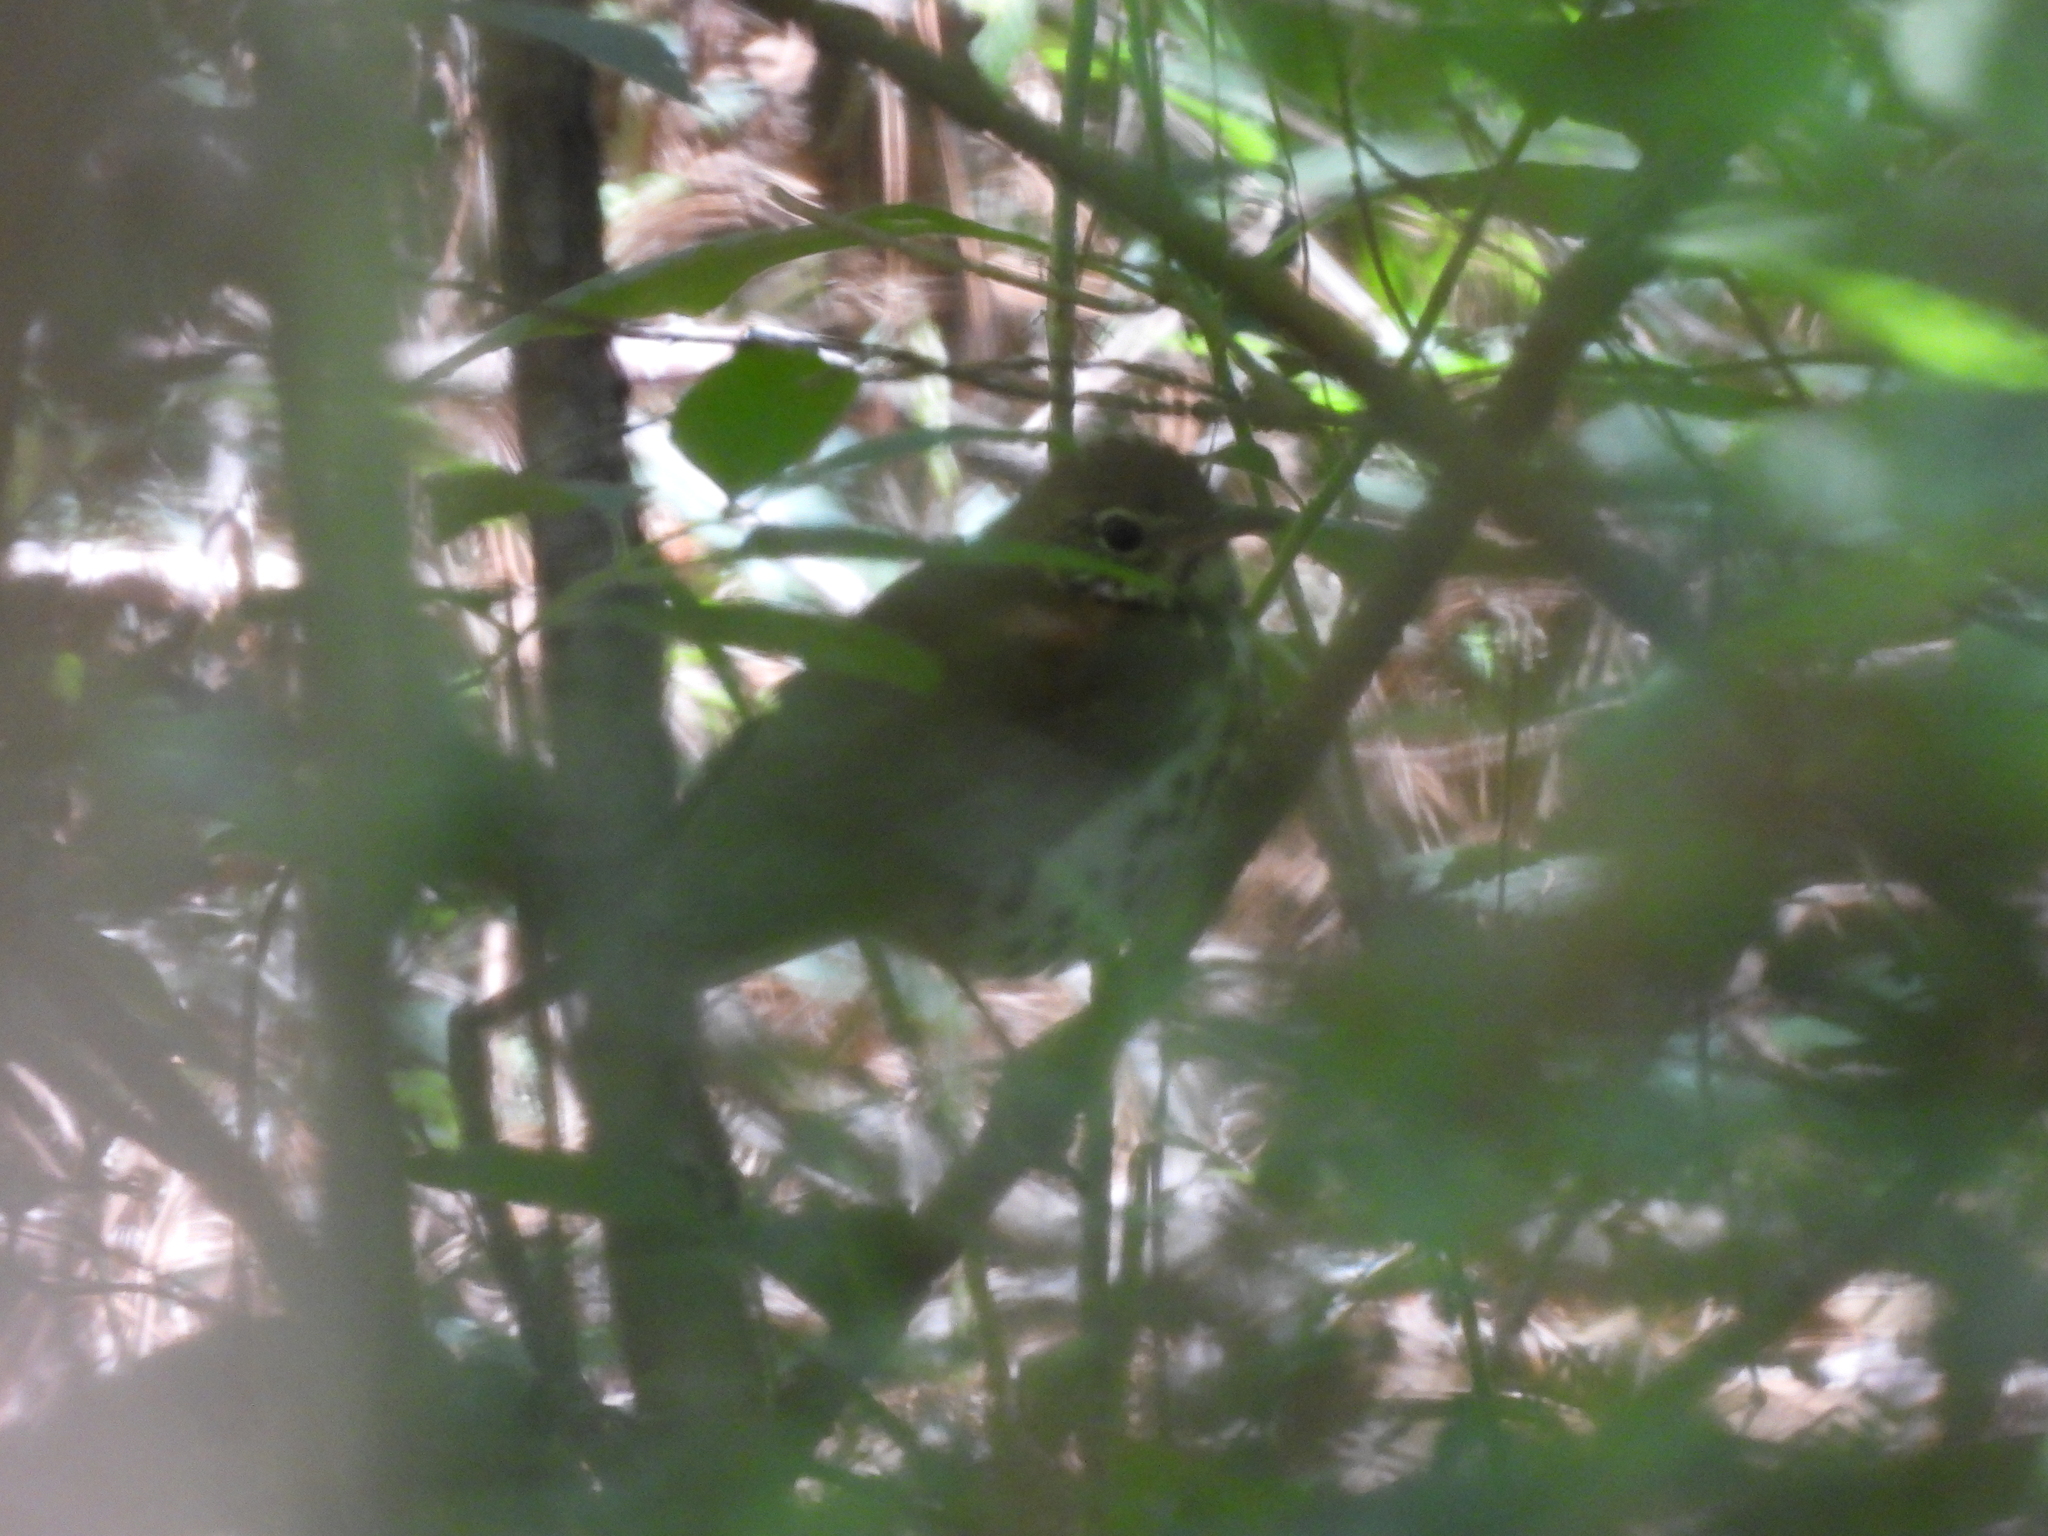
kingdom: Animalia
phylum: Chordata
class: Aves
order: Passeriformes
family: Turdidae
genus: Hylocichla
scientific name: Hylocichla mustelina
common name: Wood thrush
